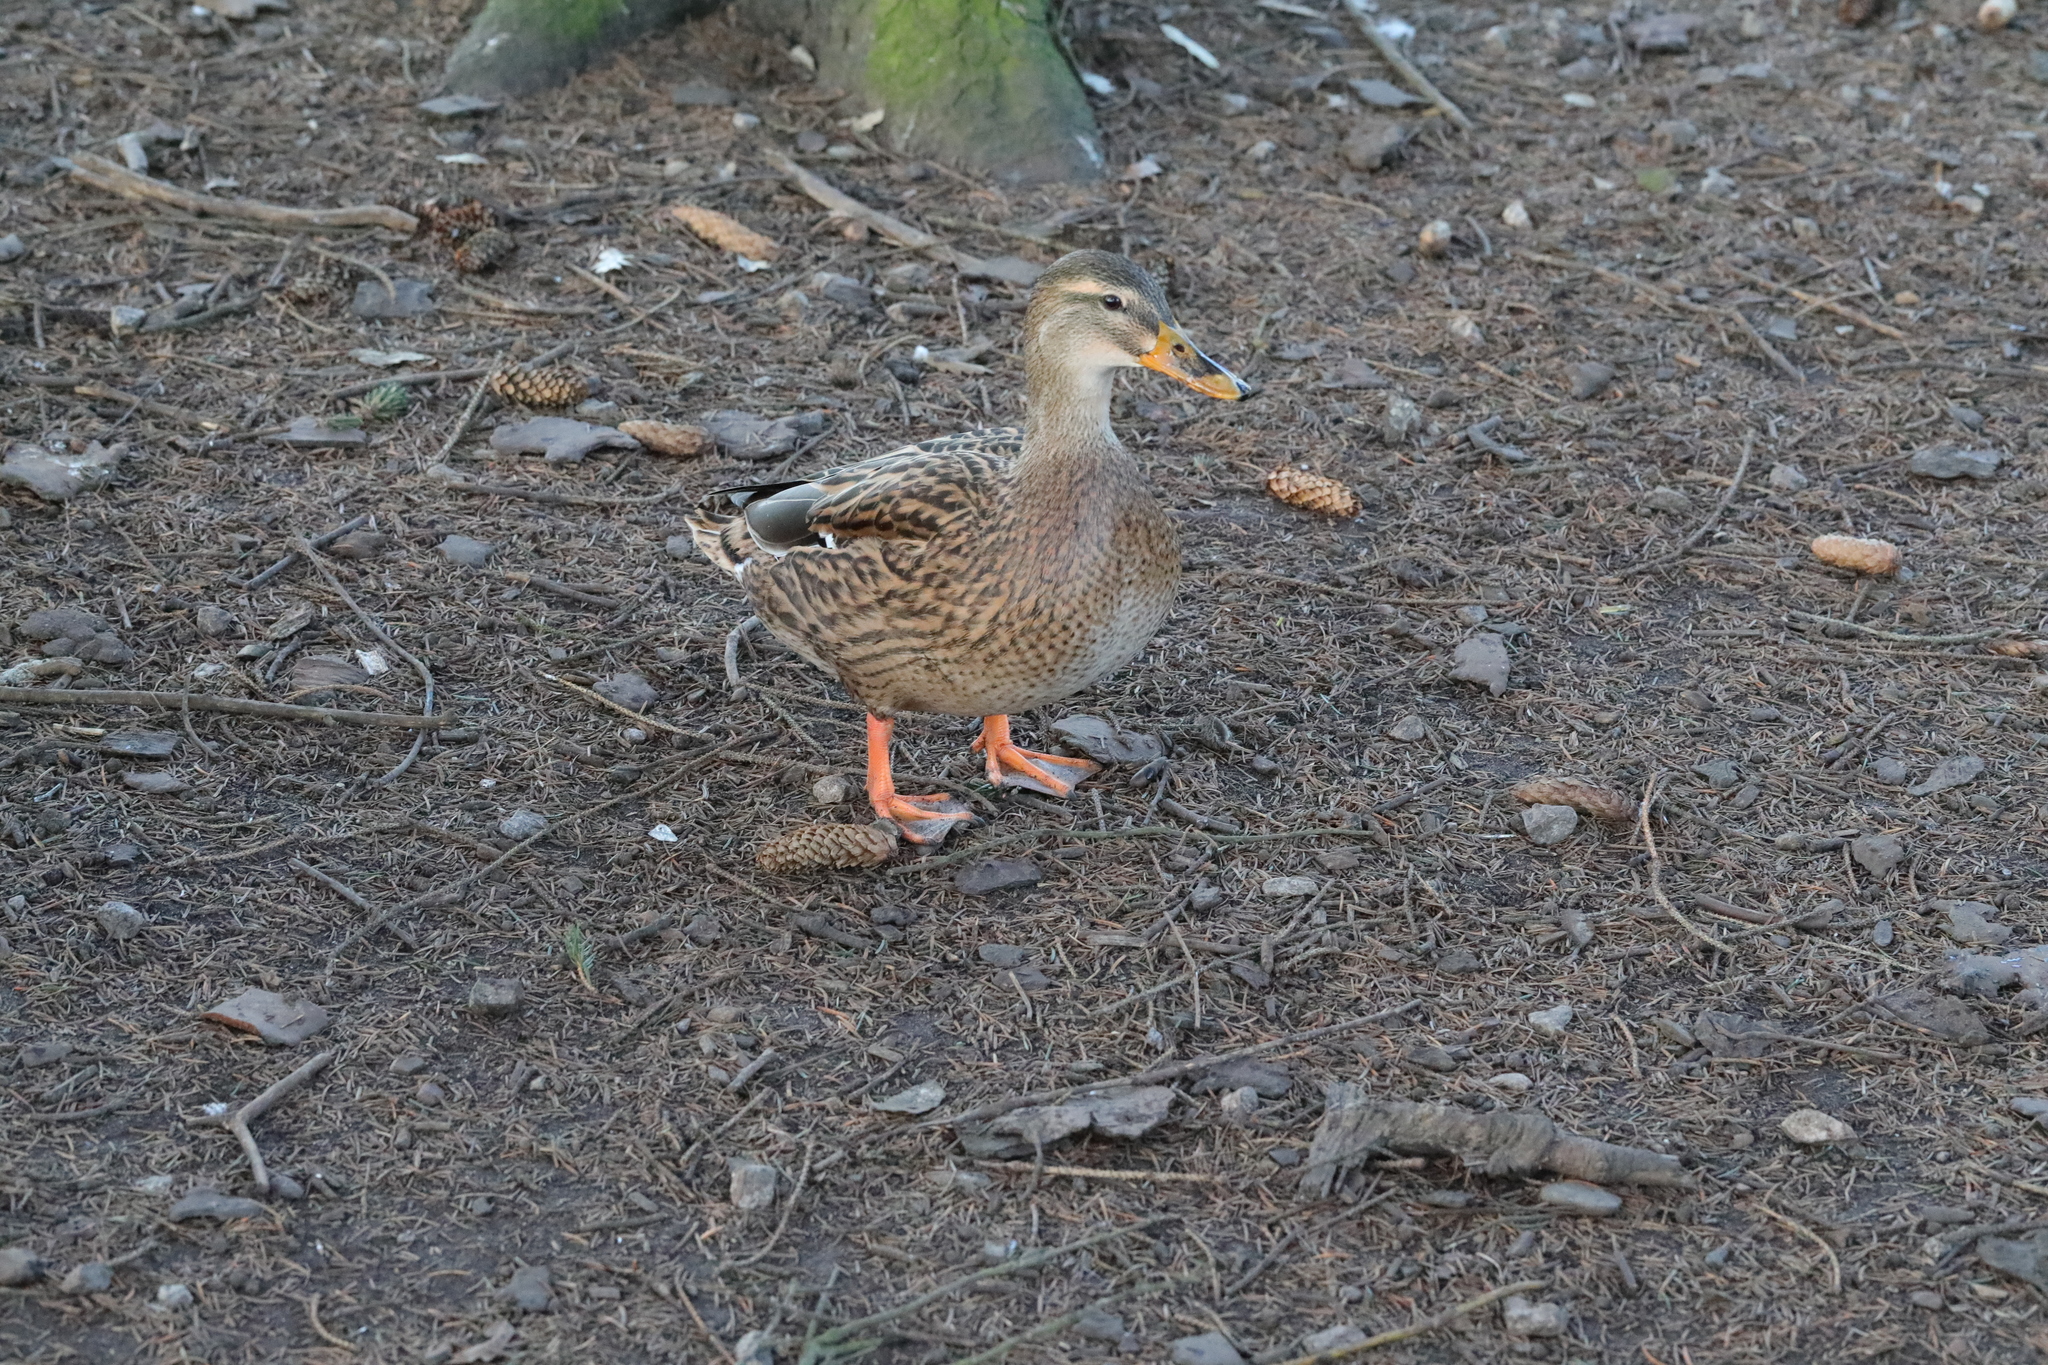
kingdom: Animalia
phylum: Chordata
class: Aves
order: Anseriformes
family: Anatidae
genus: Anas
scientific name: Anas platyrhynchos
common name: Mallard
